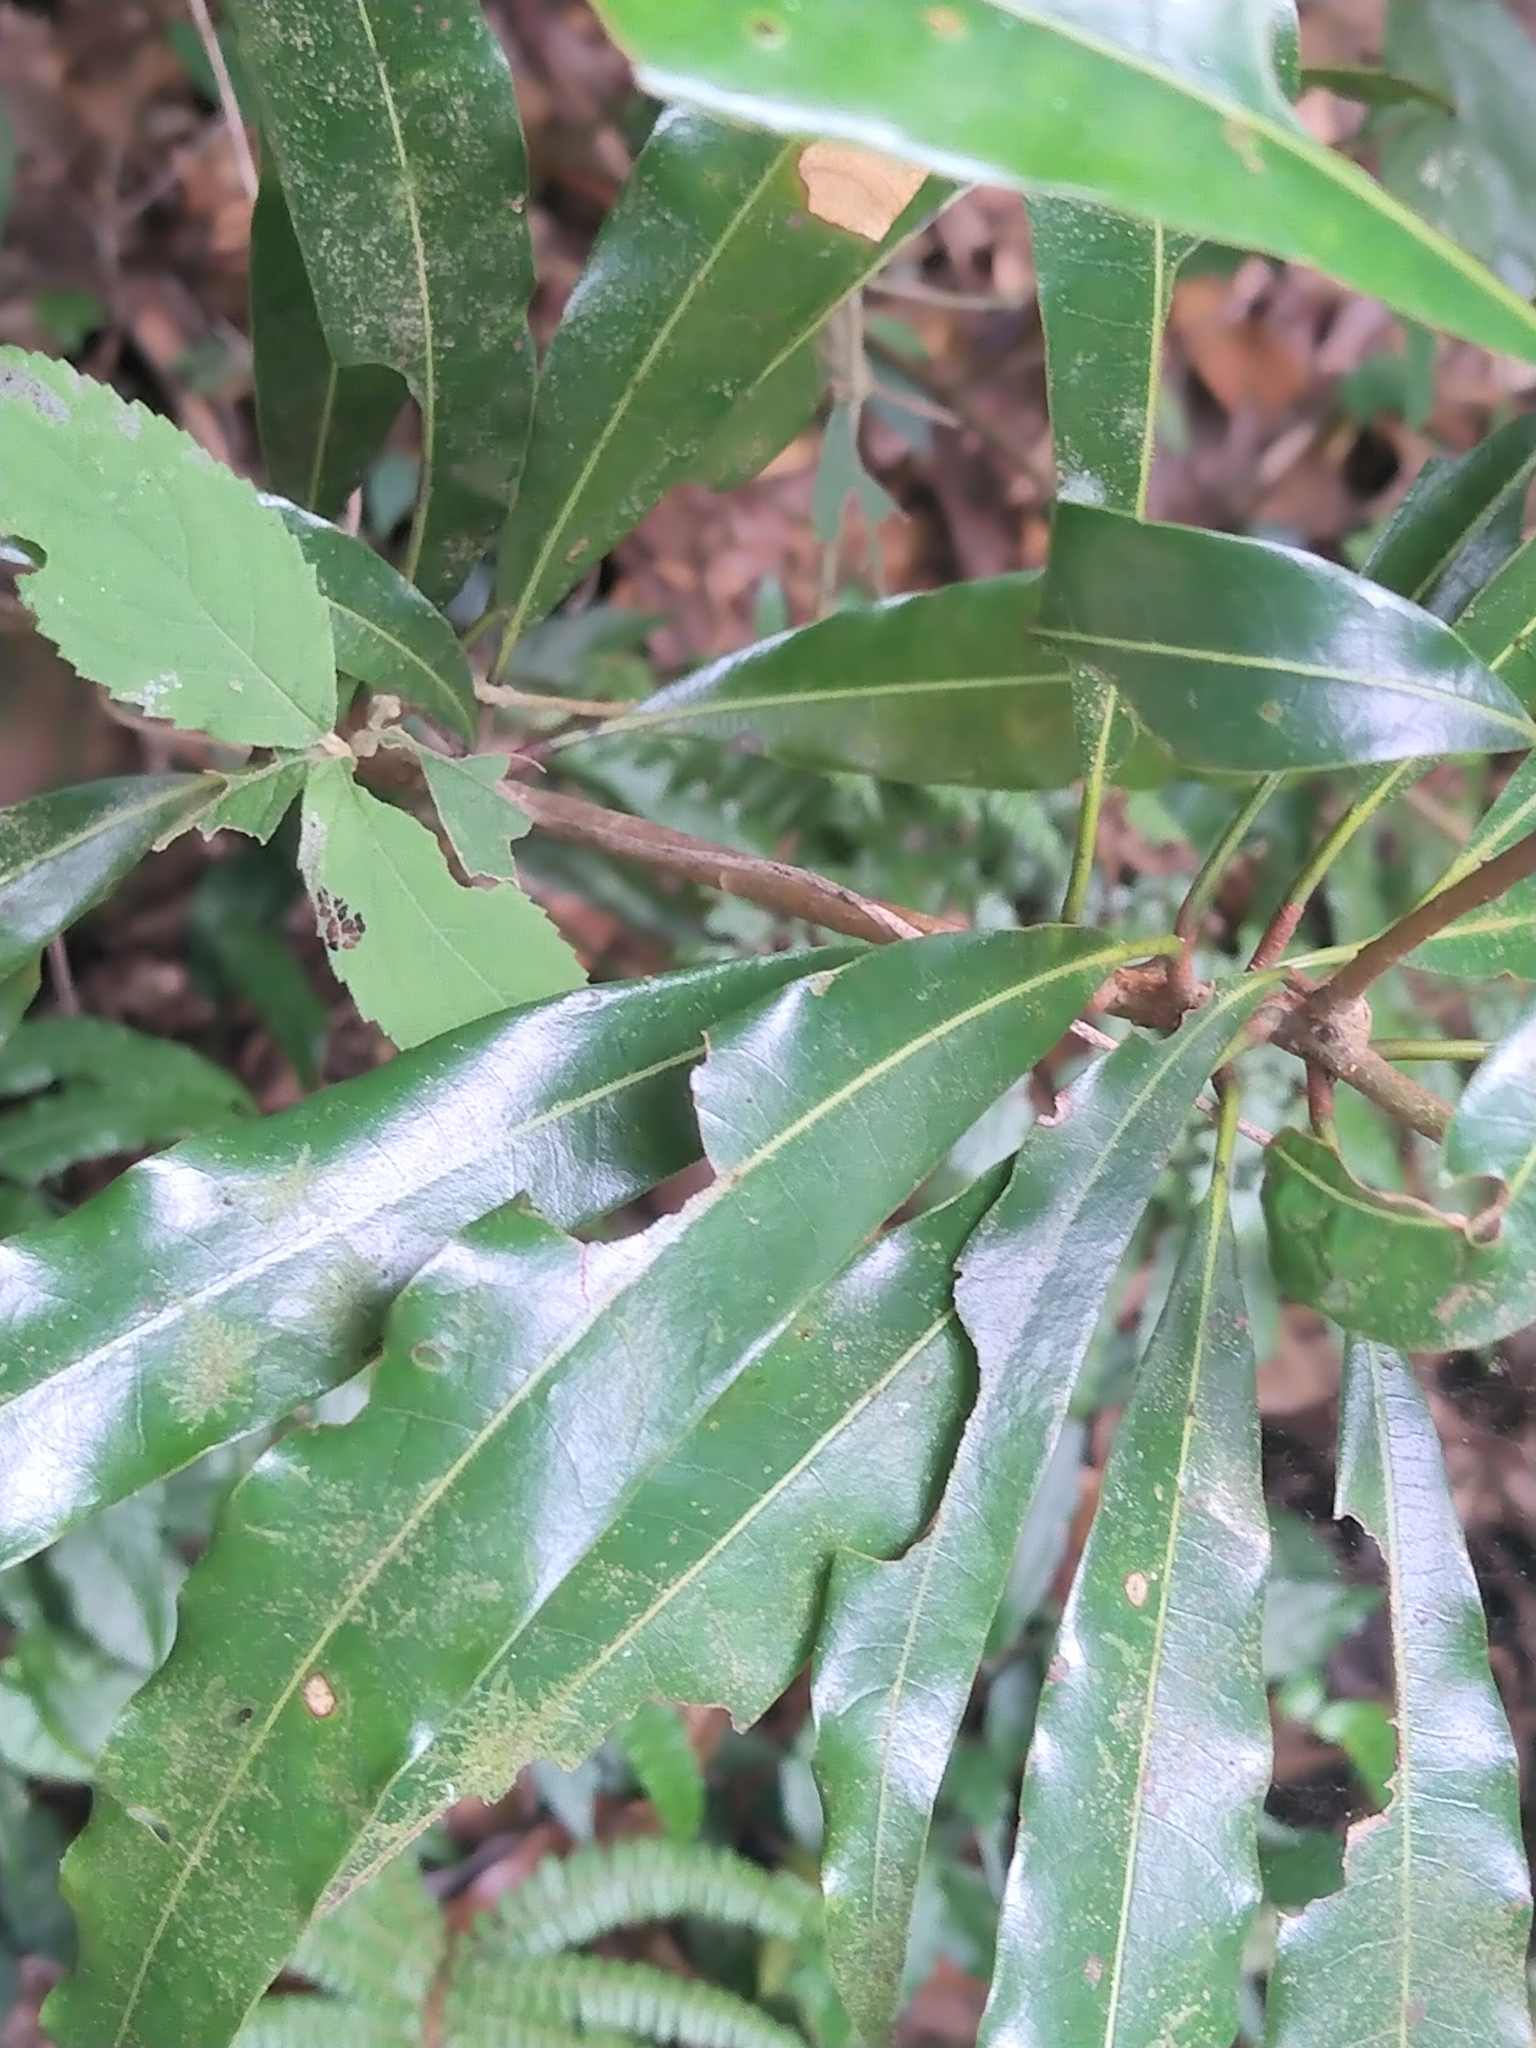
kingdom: Plantae
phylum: Tracheophyta
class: Magnoliopsida
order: Laurales
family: Lauraceae
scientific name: Lauraceae
